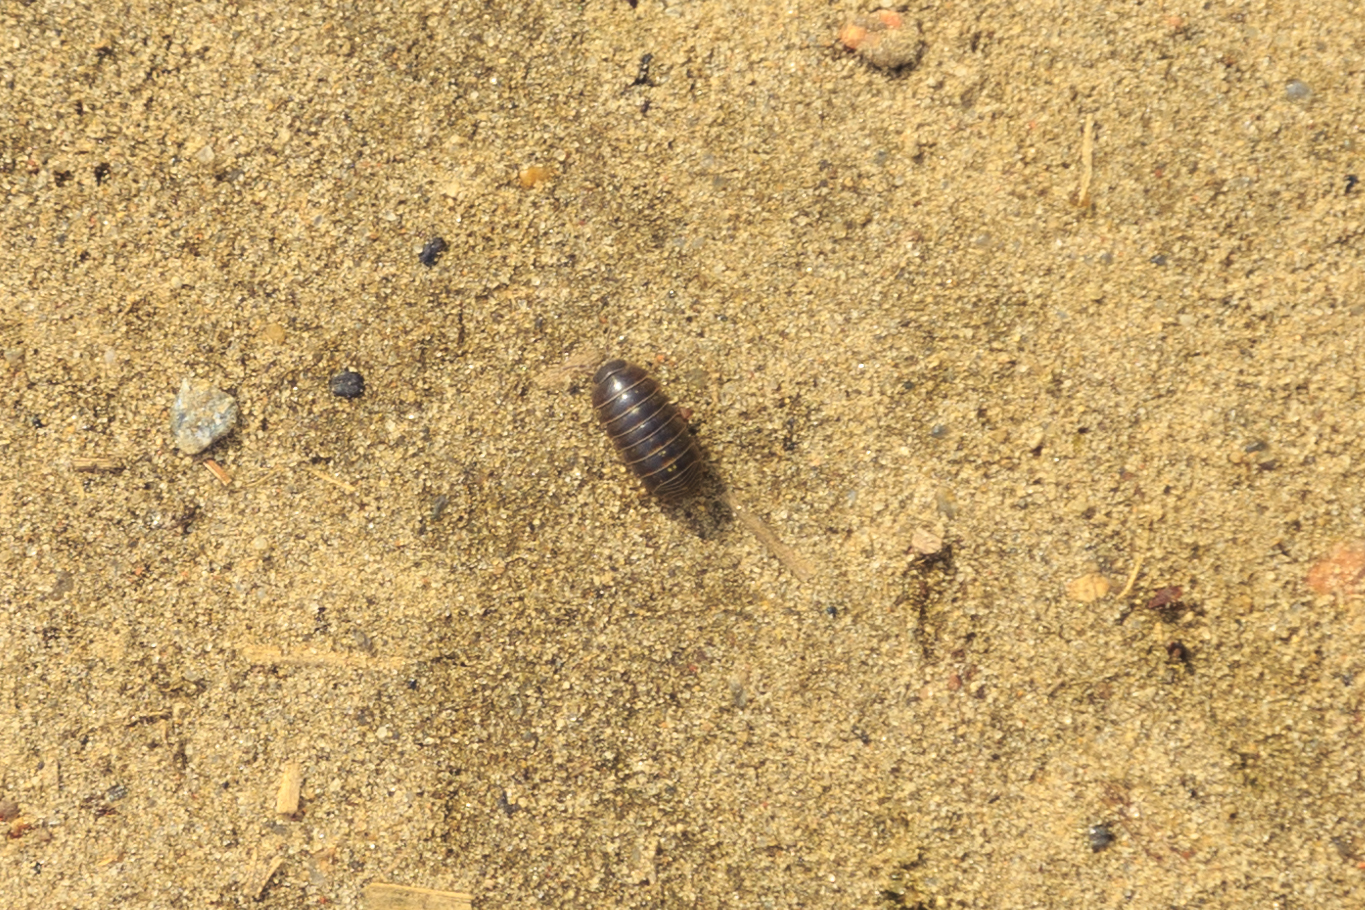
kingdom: Animalia
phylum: Arthropoda
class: Malacostraca
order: Isopoda
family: Armadillidiidae
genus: Armadillidium
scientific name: Armadillidium vulgare
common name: Common pill woodlouse
